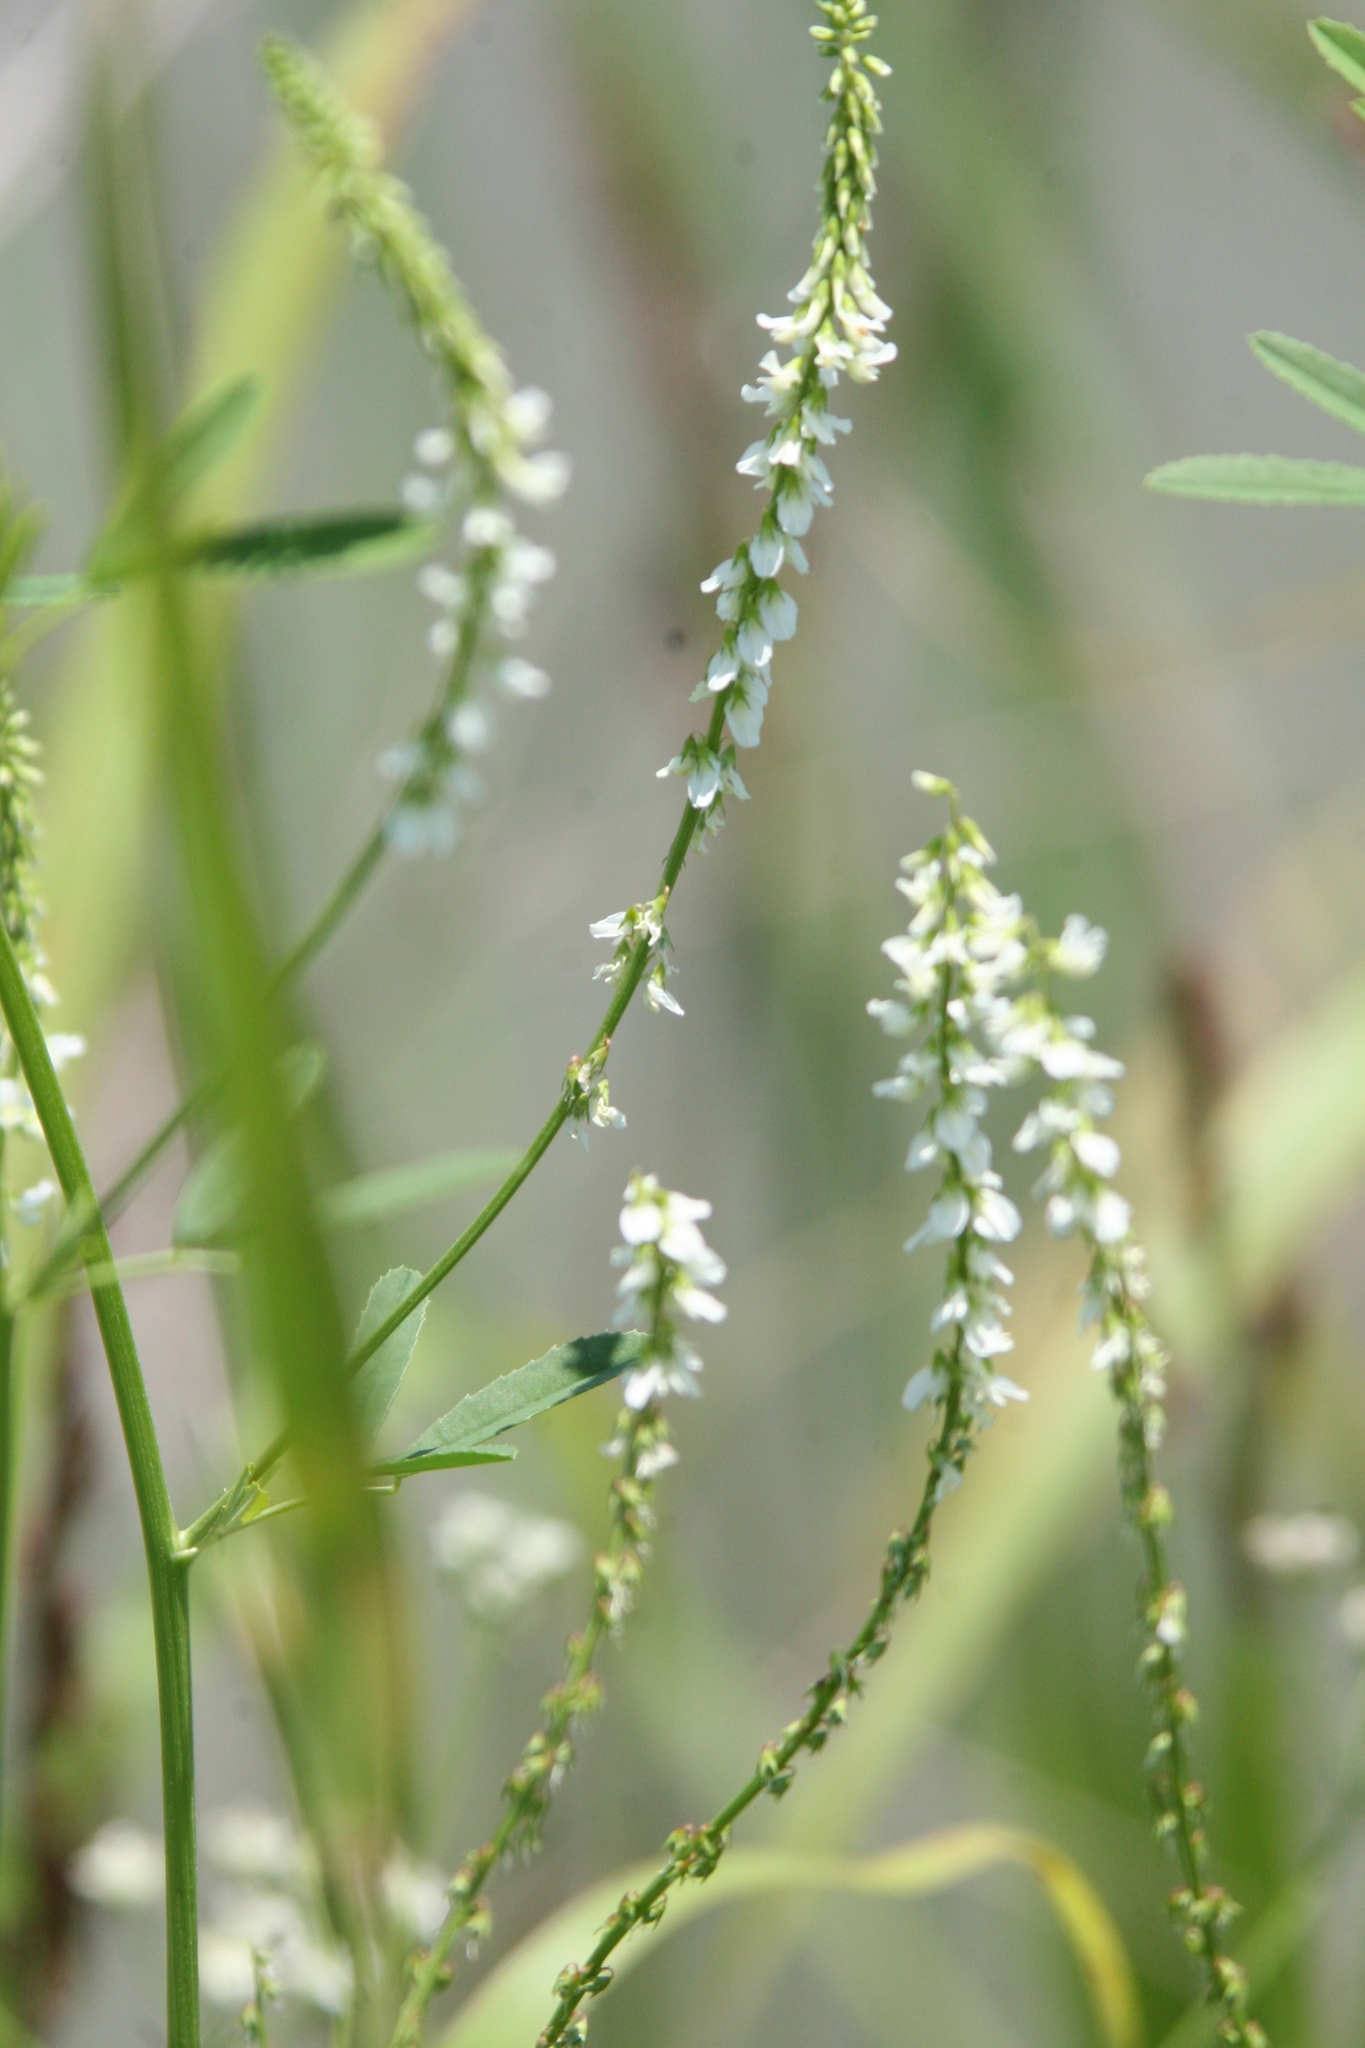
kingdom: Plantae
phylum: Tracheophyta
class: Magnoliopsida
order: Fabales
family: Fabaceae
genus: Melilotus
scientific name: Melilotus albus
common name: White melilot
